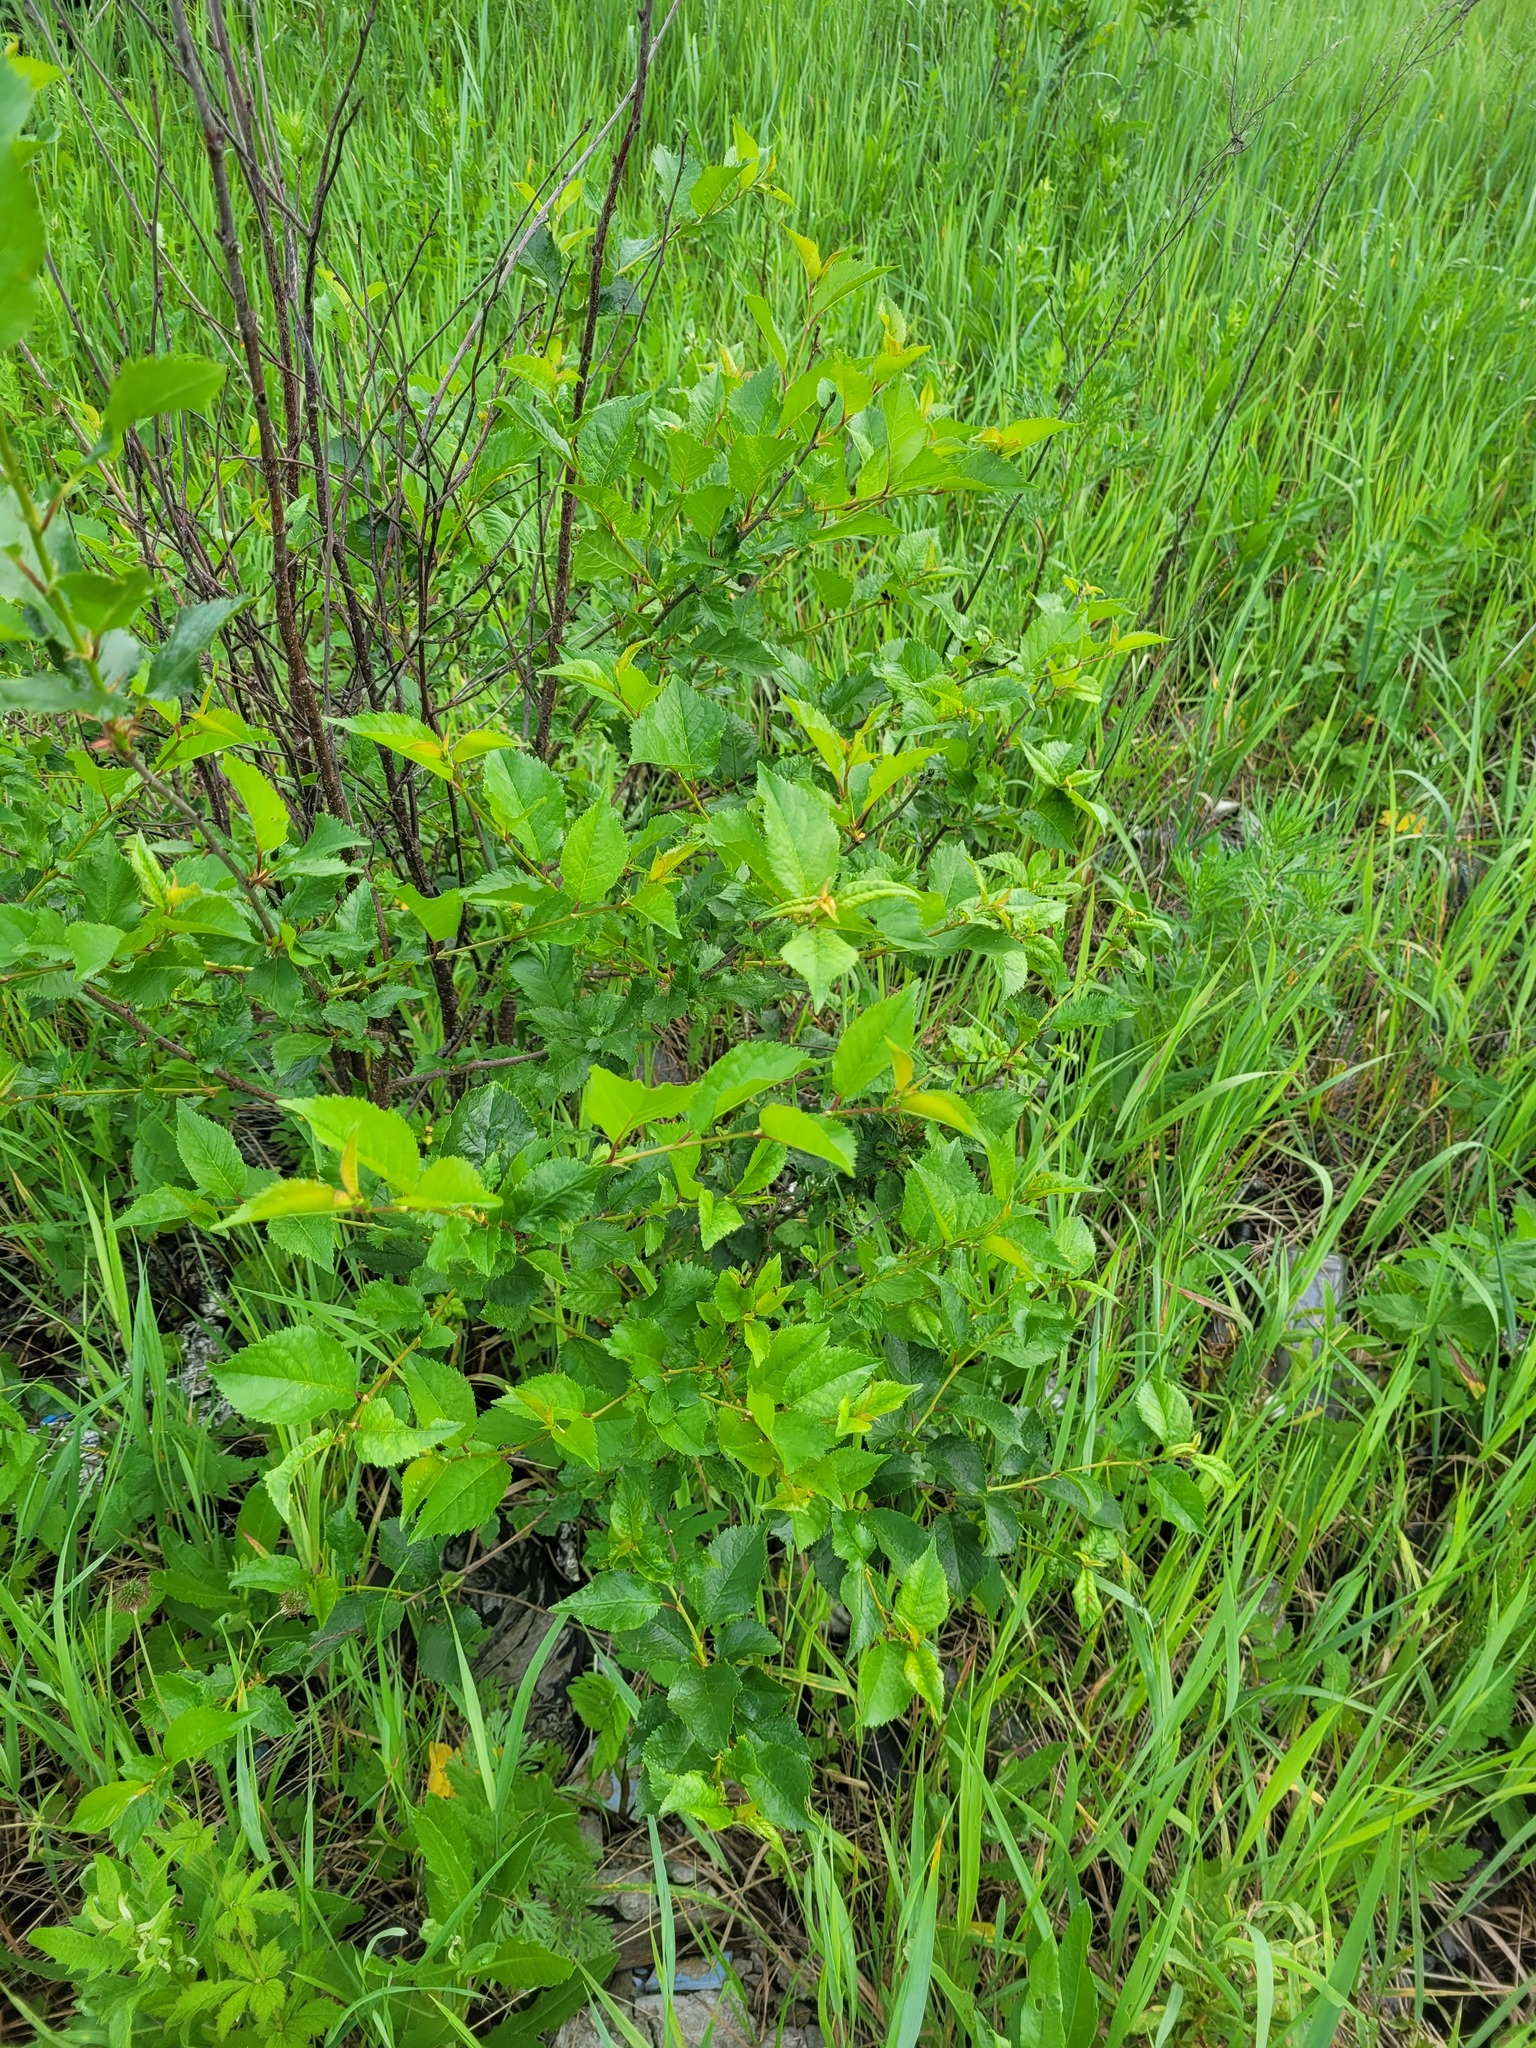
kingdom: Plantae
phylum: Tracheophyta
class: Magnoliopsida
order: Rosales
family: Rosaceae
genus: Prunus
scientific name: Prunus cerasus
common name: Morello cherry
